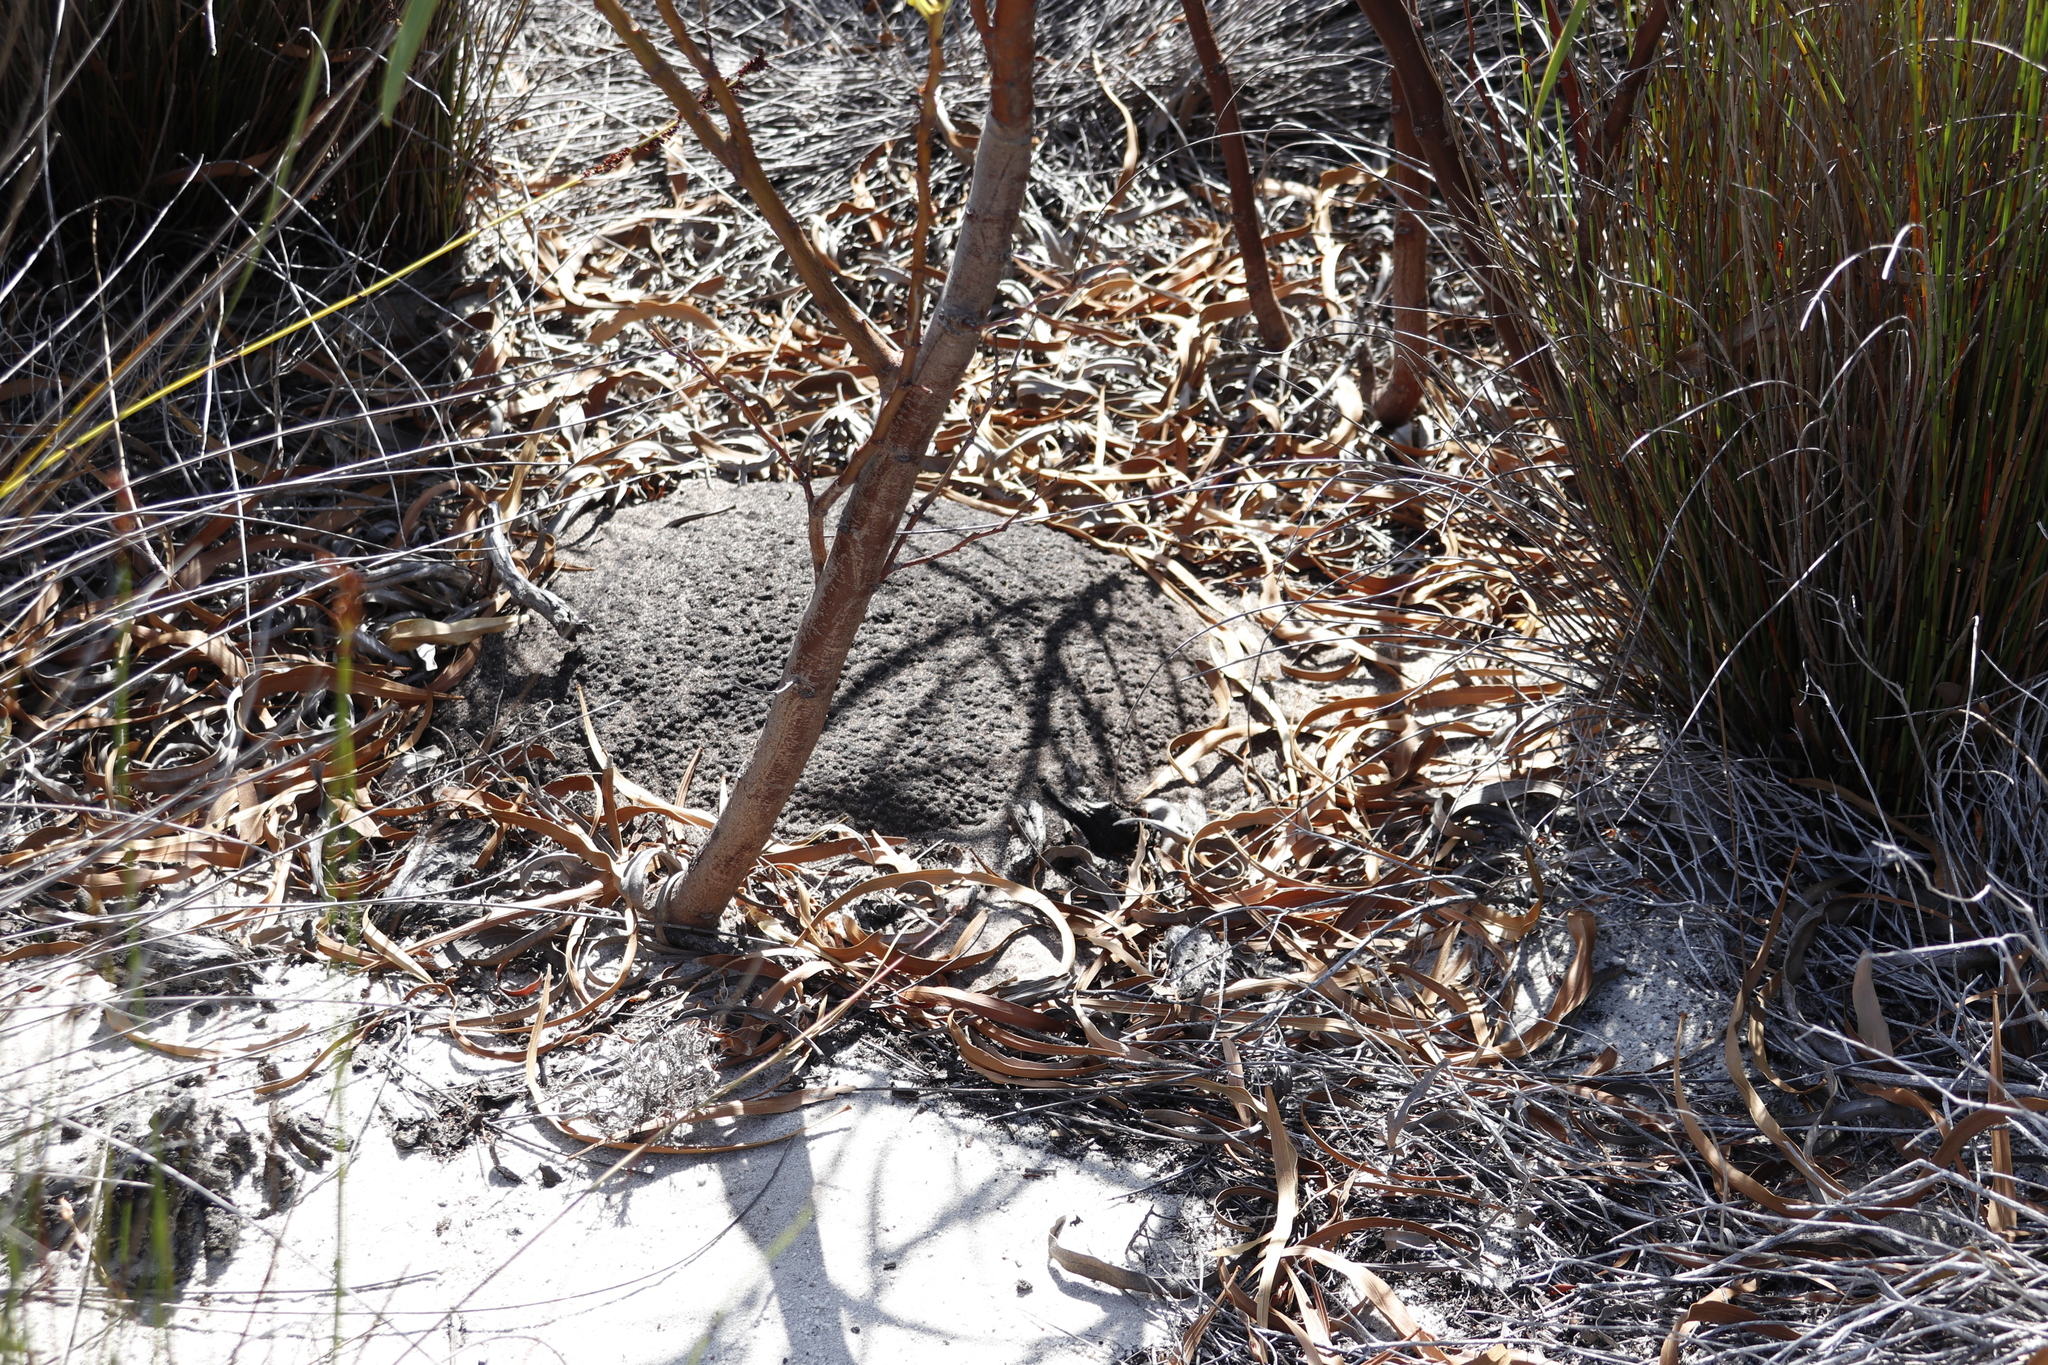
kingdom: Animalia
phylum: Arthropoda
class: Insecta
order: Blattodea
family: Termitidae
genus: Amitermes
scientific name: Amitermes hastatus
